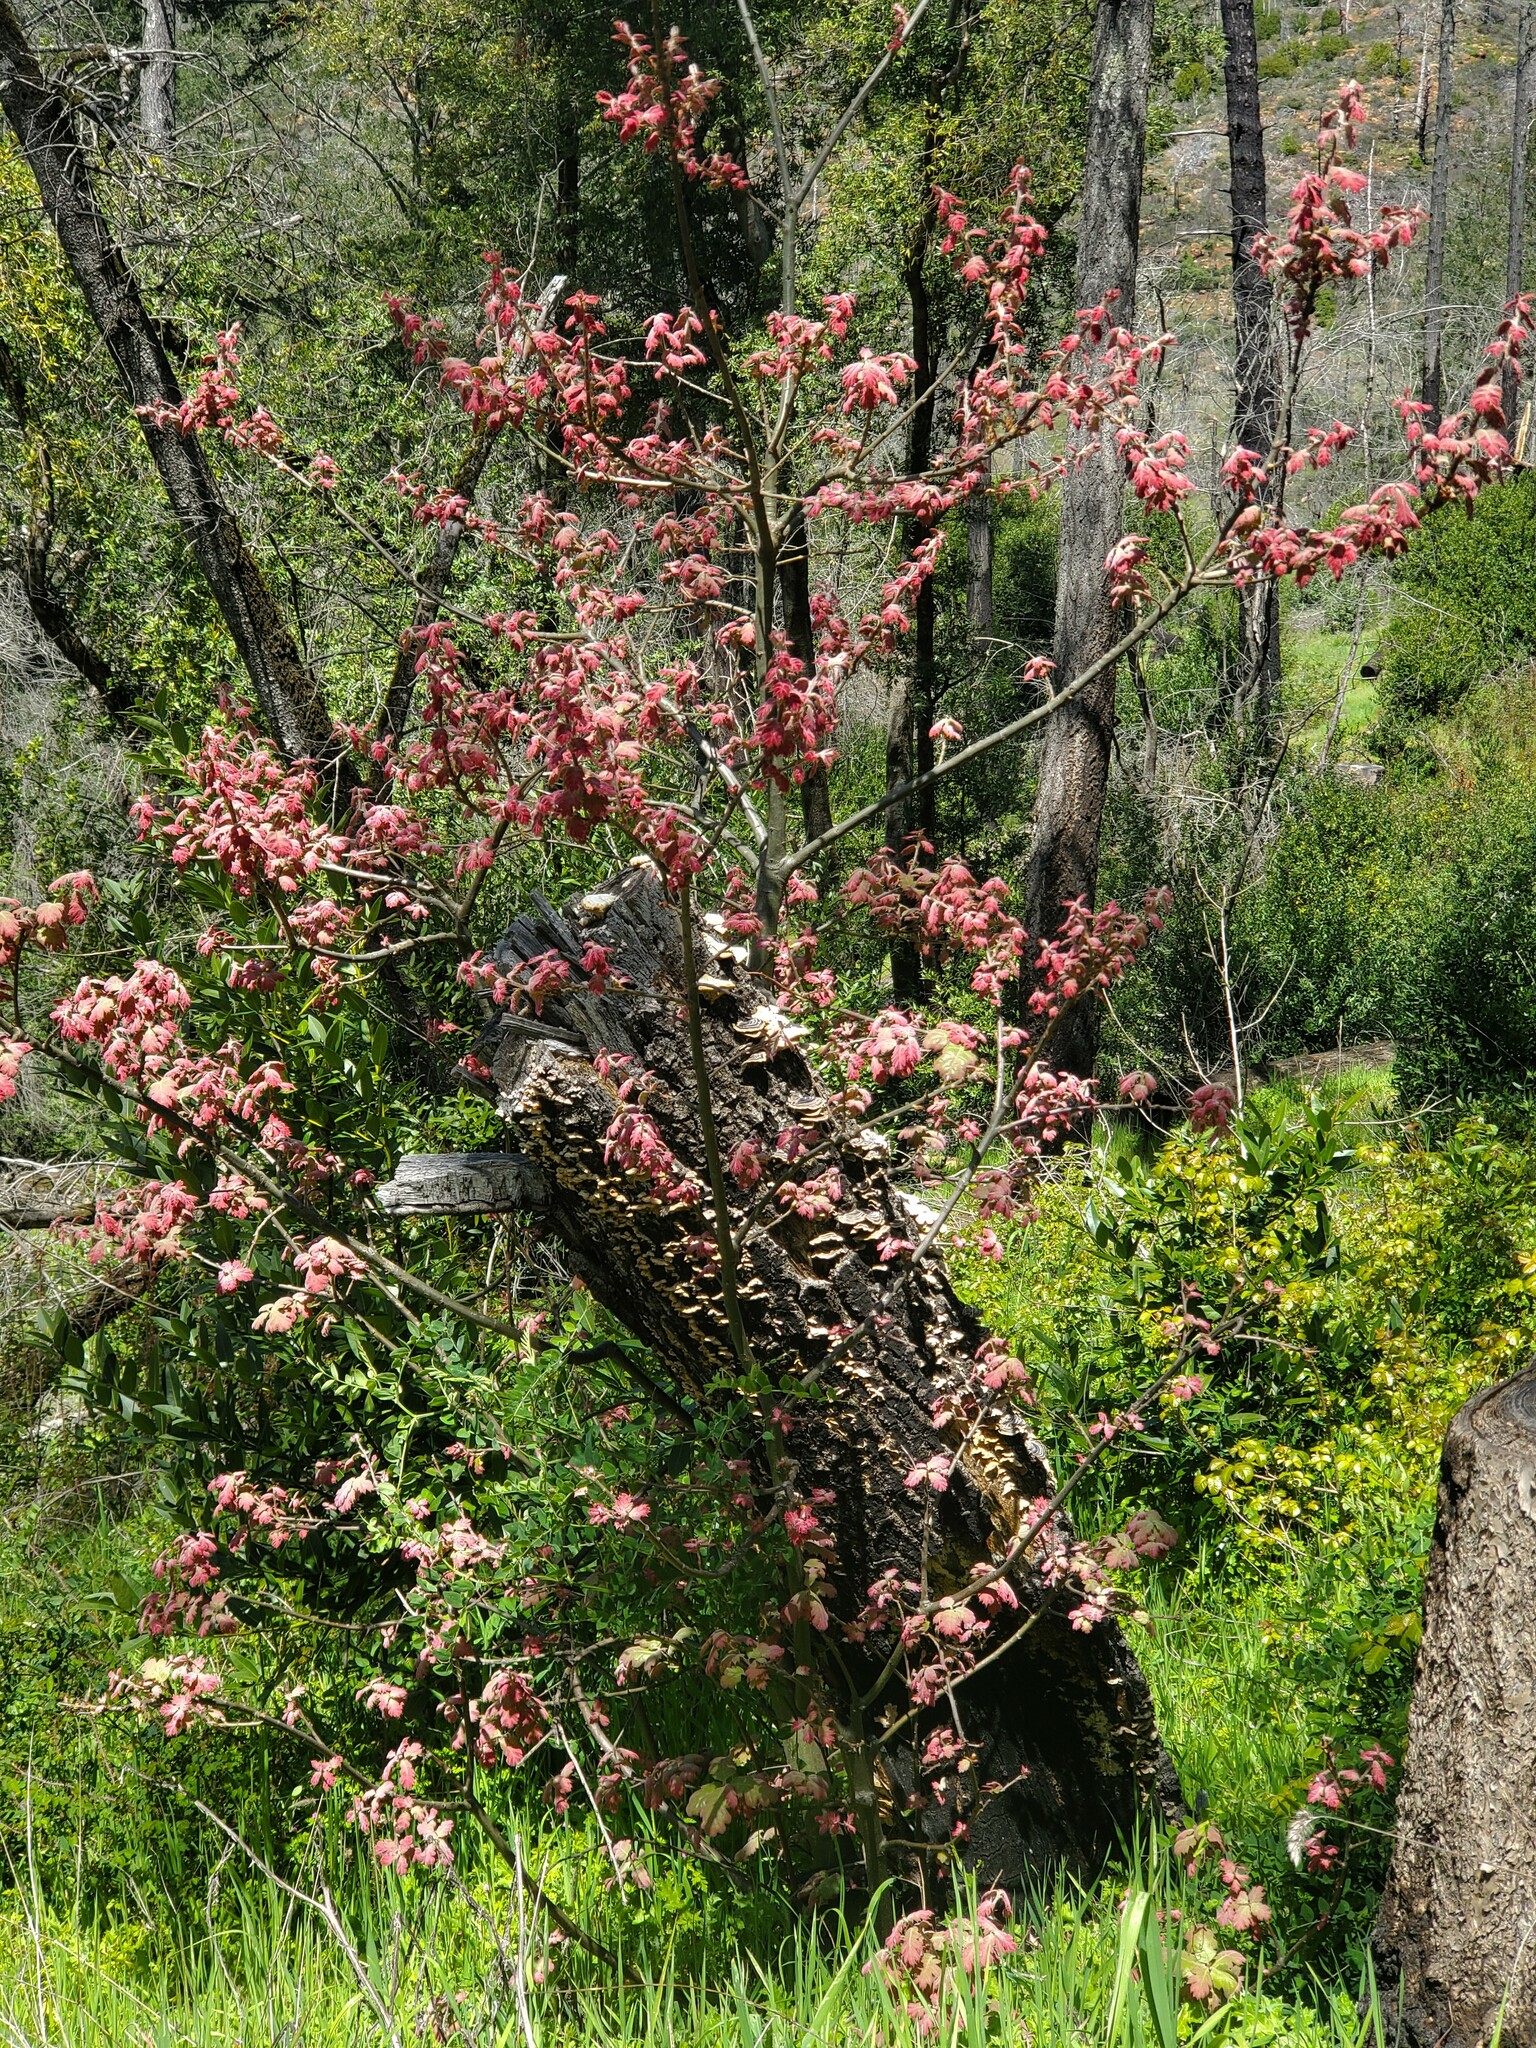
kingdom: Plantae
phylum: Tracheophyta
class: Magnoliopsida
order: Fagales
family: Fagaceae
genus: Quercus
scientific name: Quercus kelloggii
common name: California black oak
